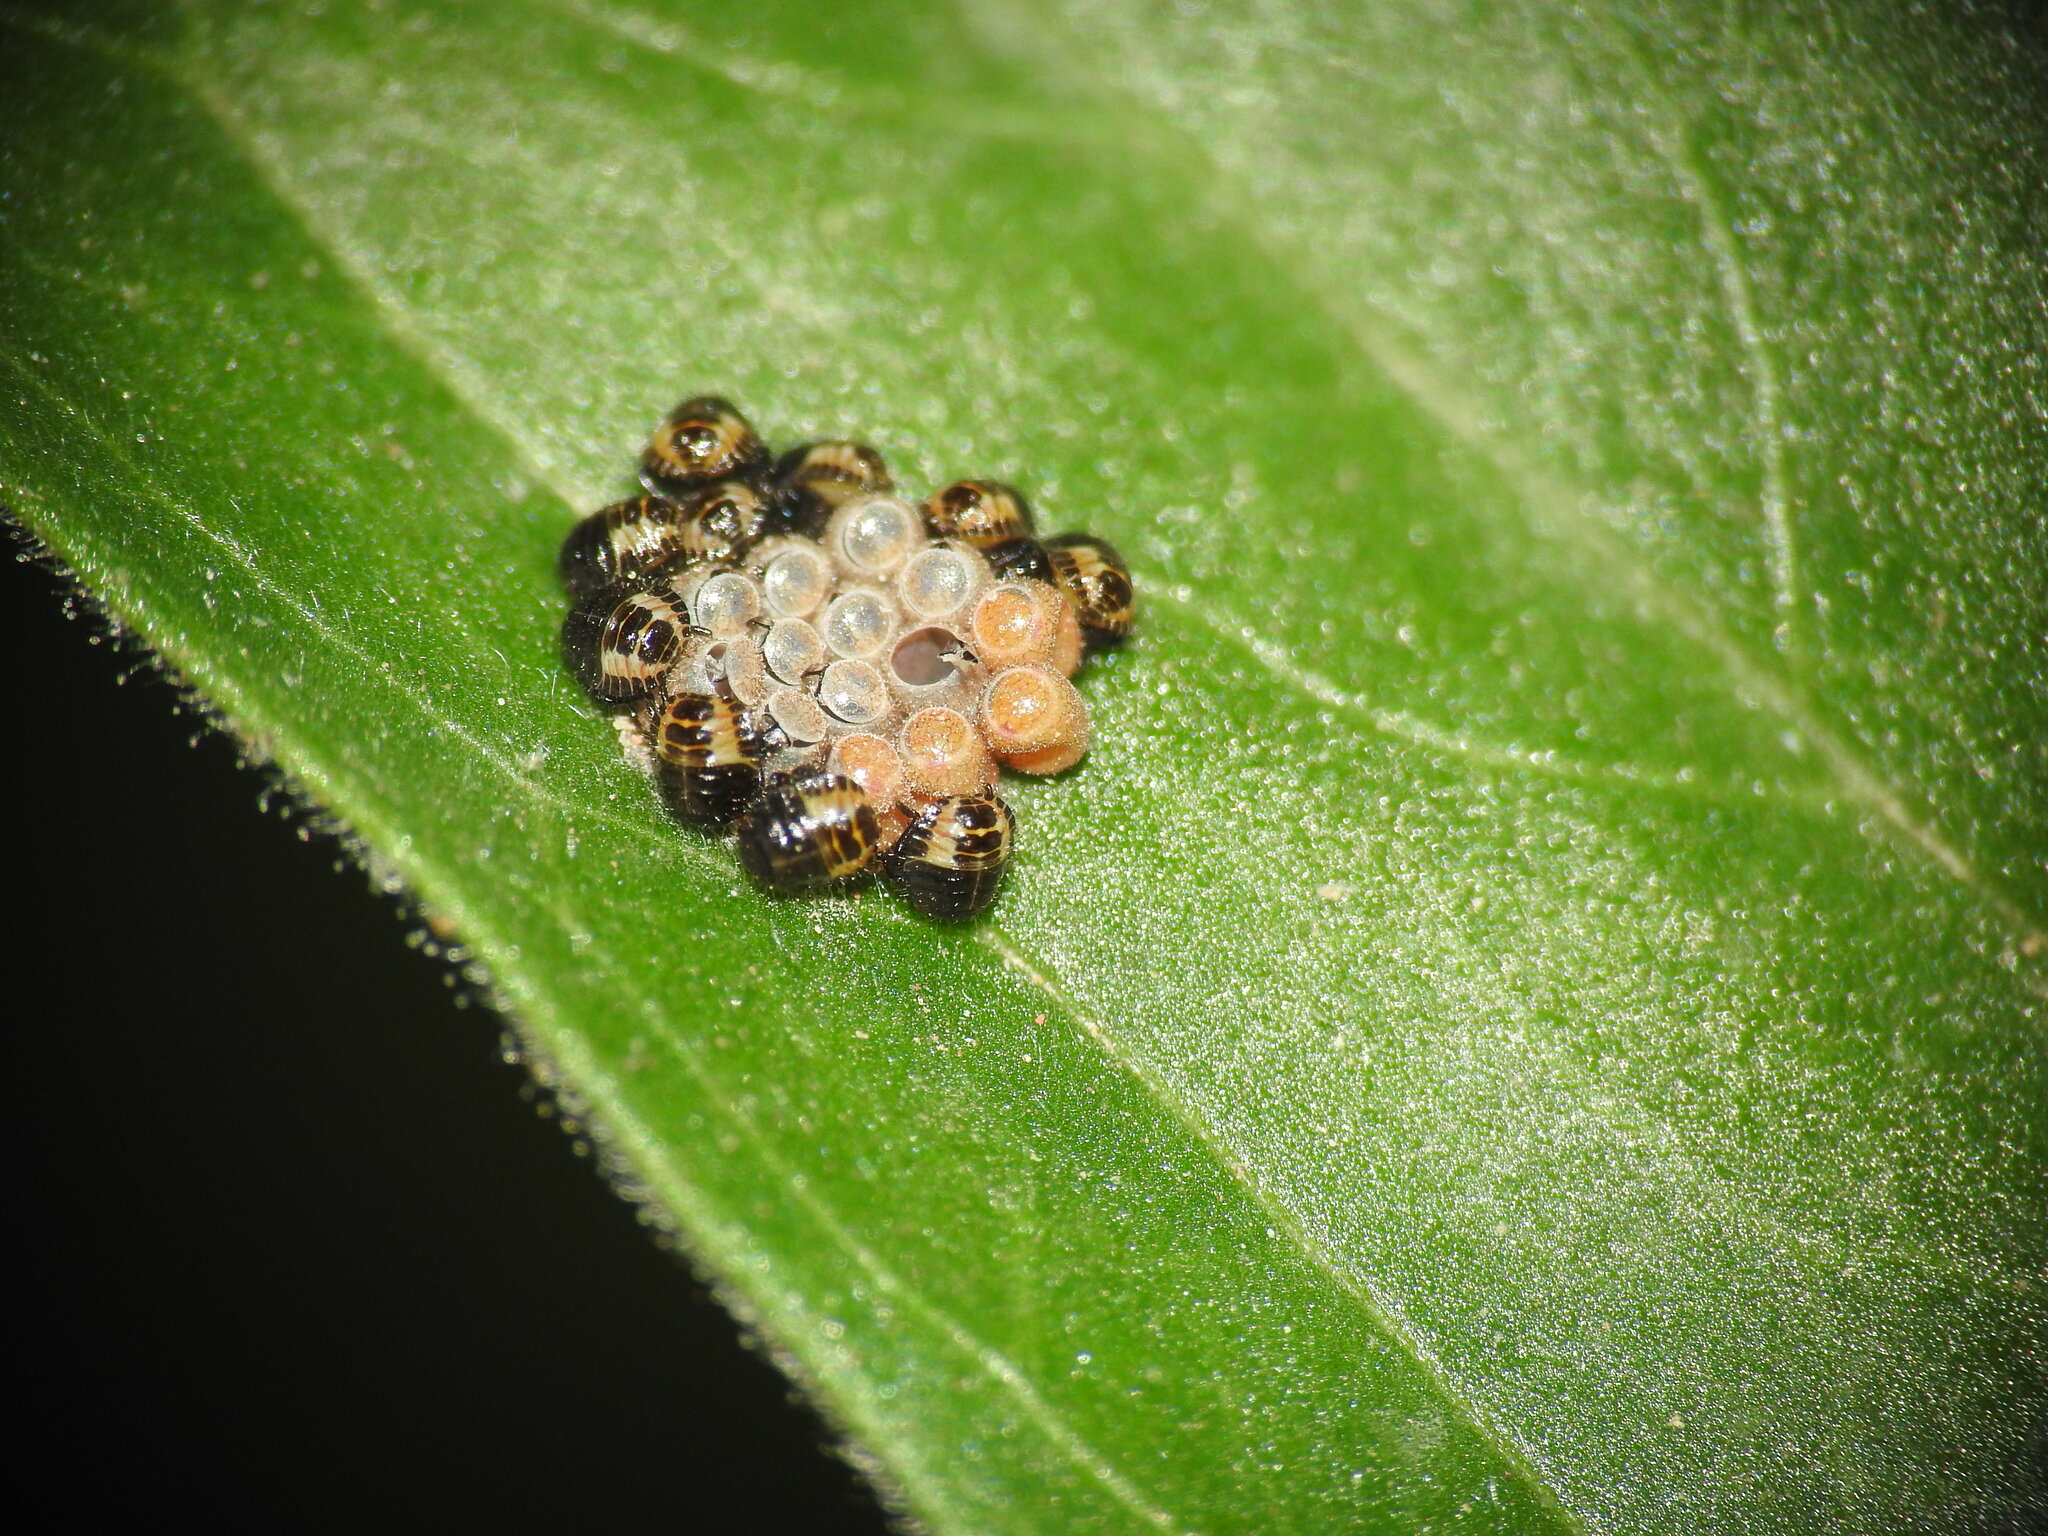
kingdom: Animalia
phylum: Arthropoda
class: Insecta
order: Hemiptera
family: Pentatomidae
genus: Dolycoris
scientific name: Dolycoris baccarum
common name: Sloe bug
